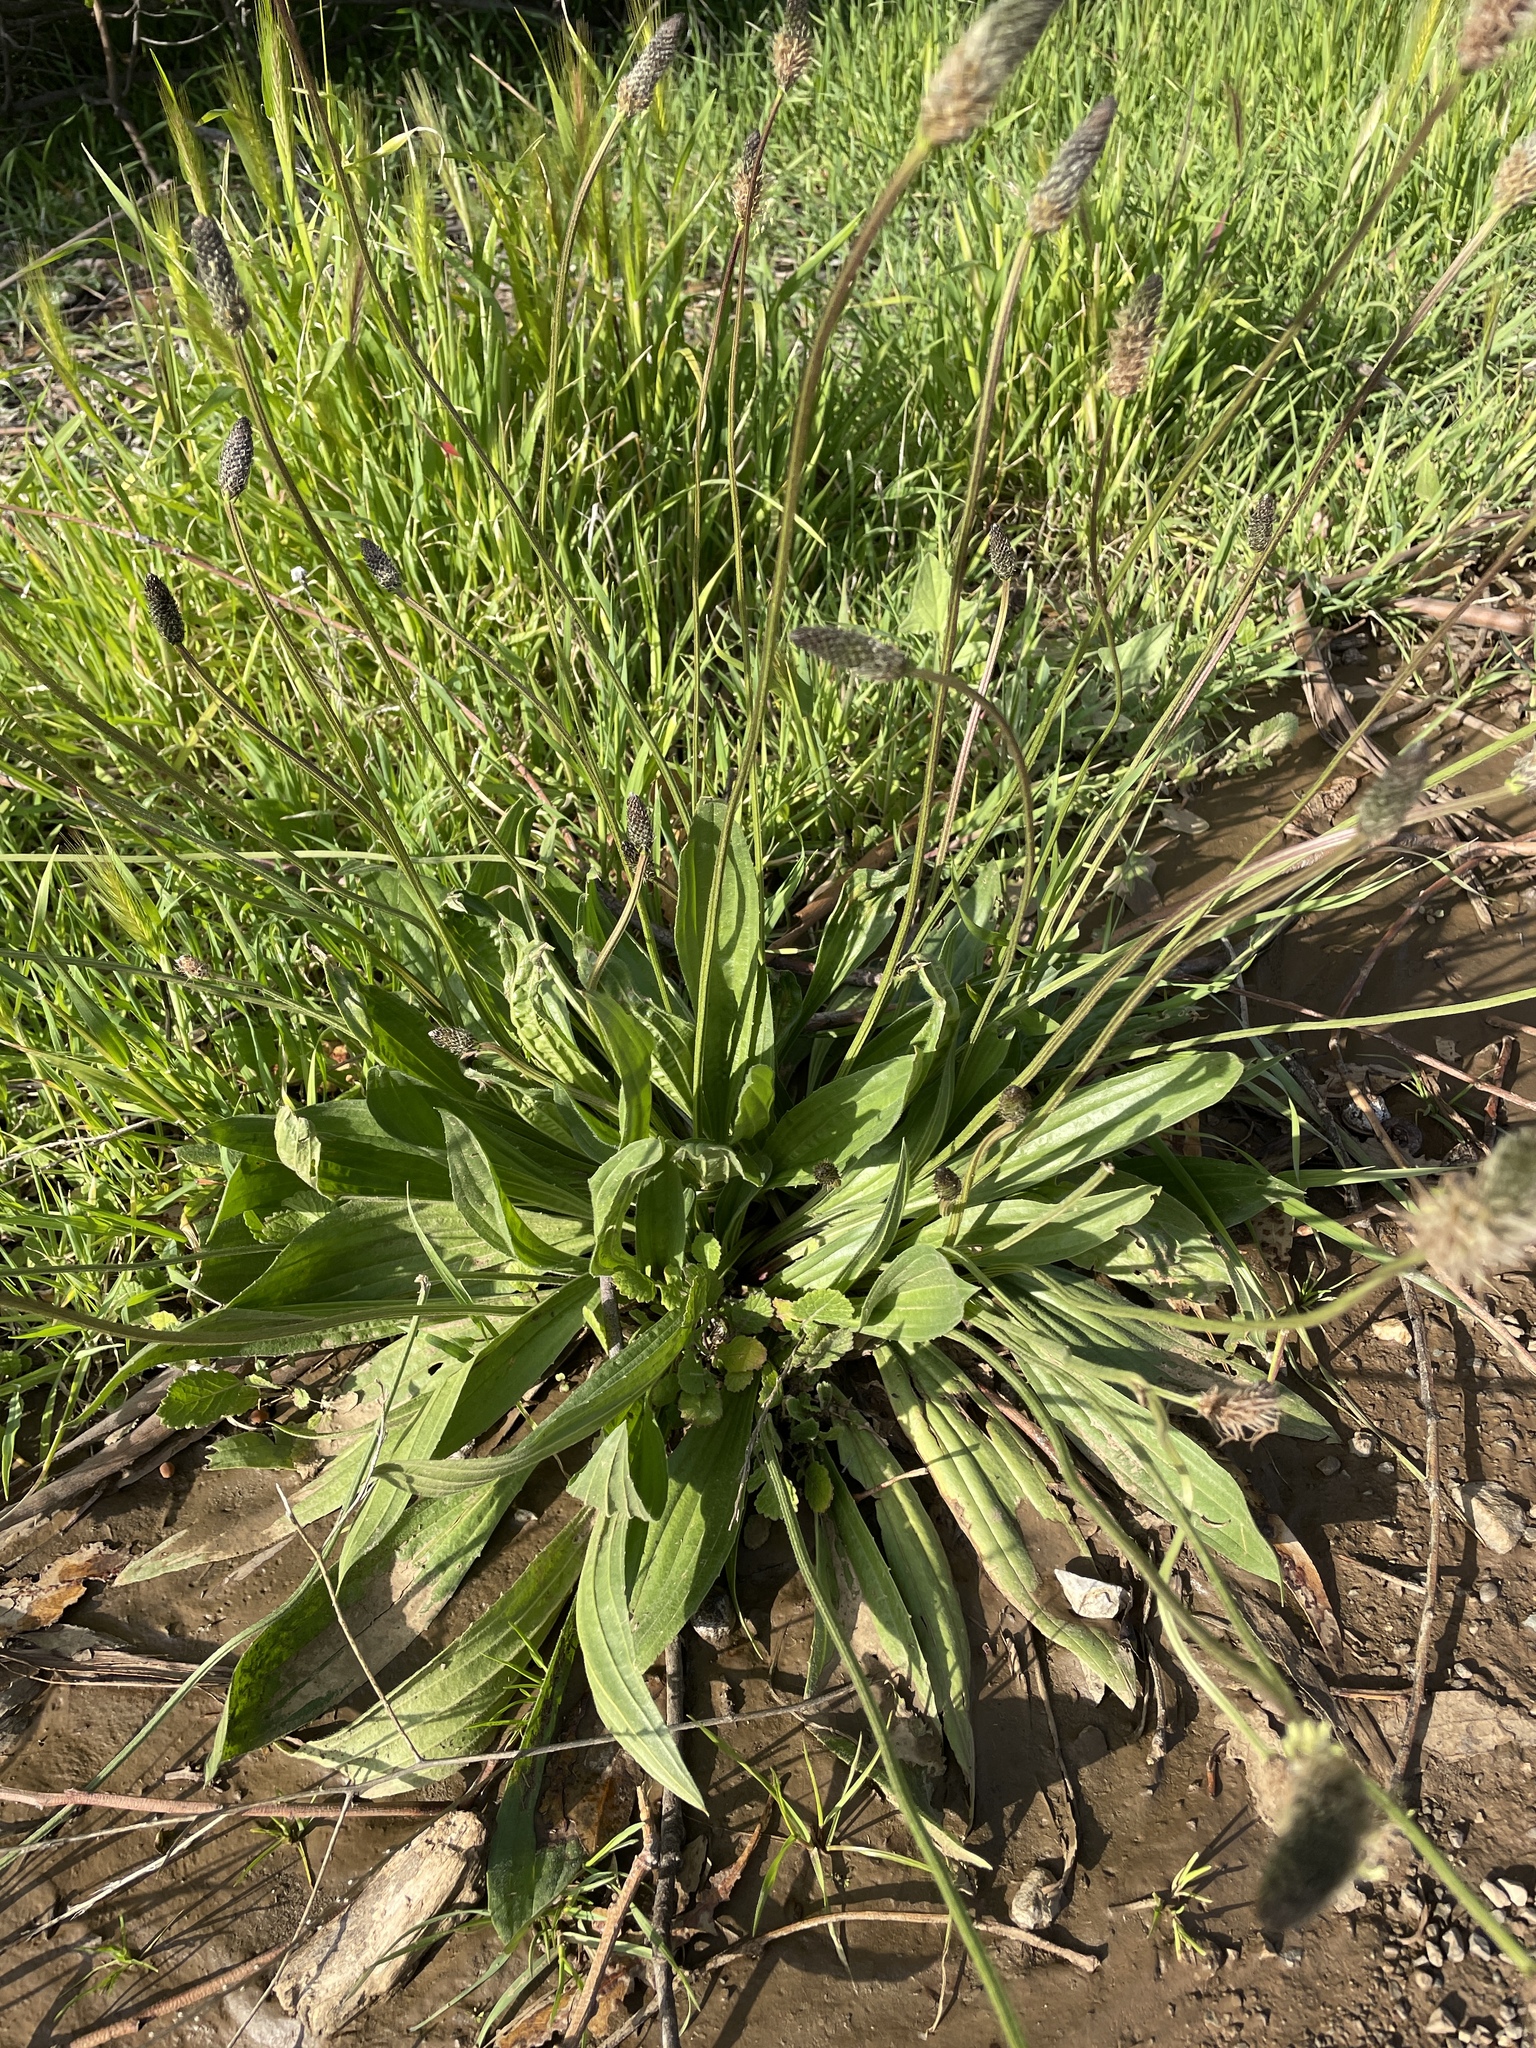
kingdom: Plantae
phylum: Tracheophyta
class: Magnoliopsida
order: Lamiales
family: Plantaginaceae
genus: Plantago
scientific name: Plantago lanceolata
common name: Ribwort plantain
